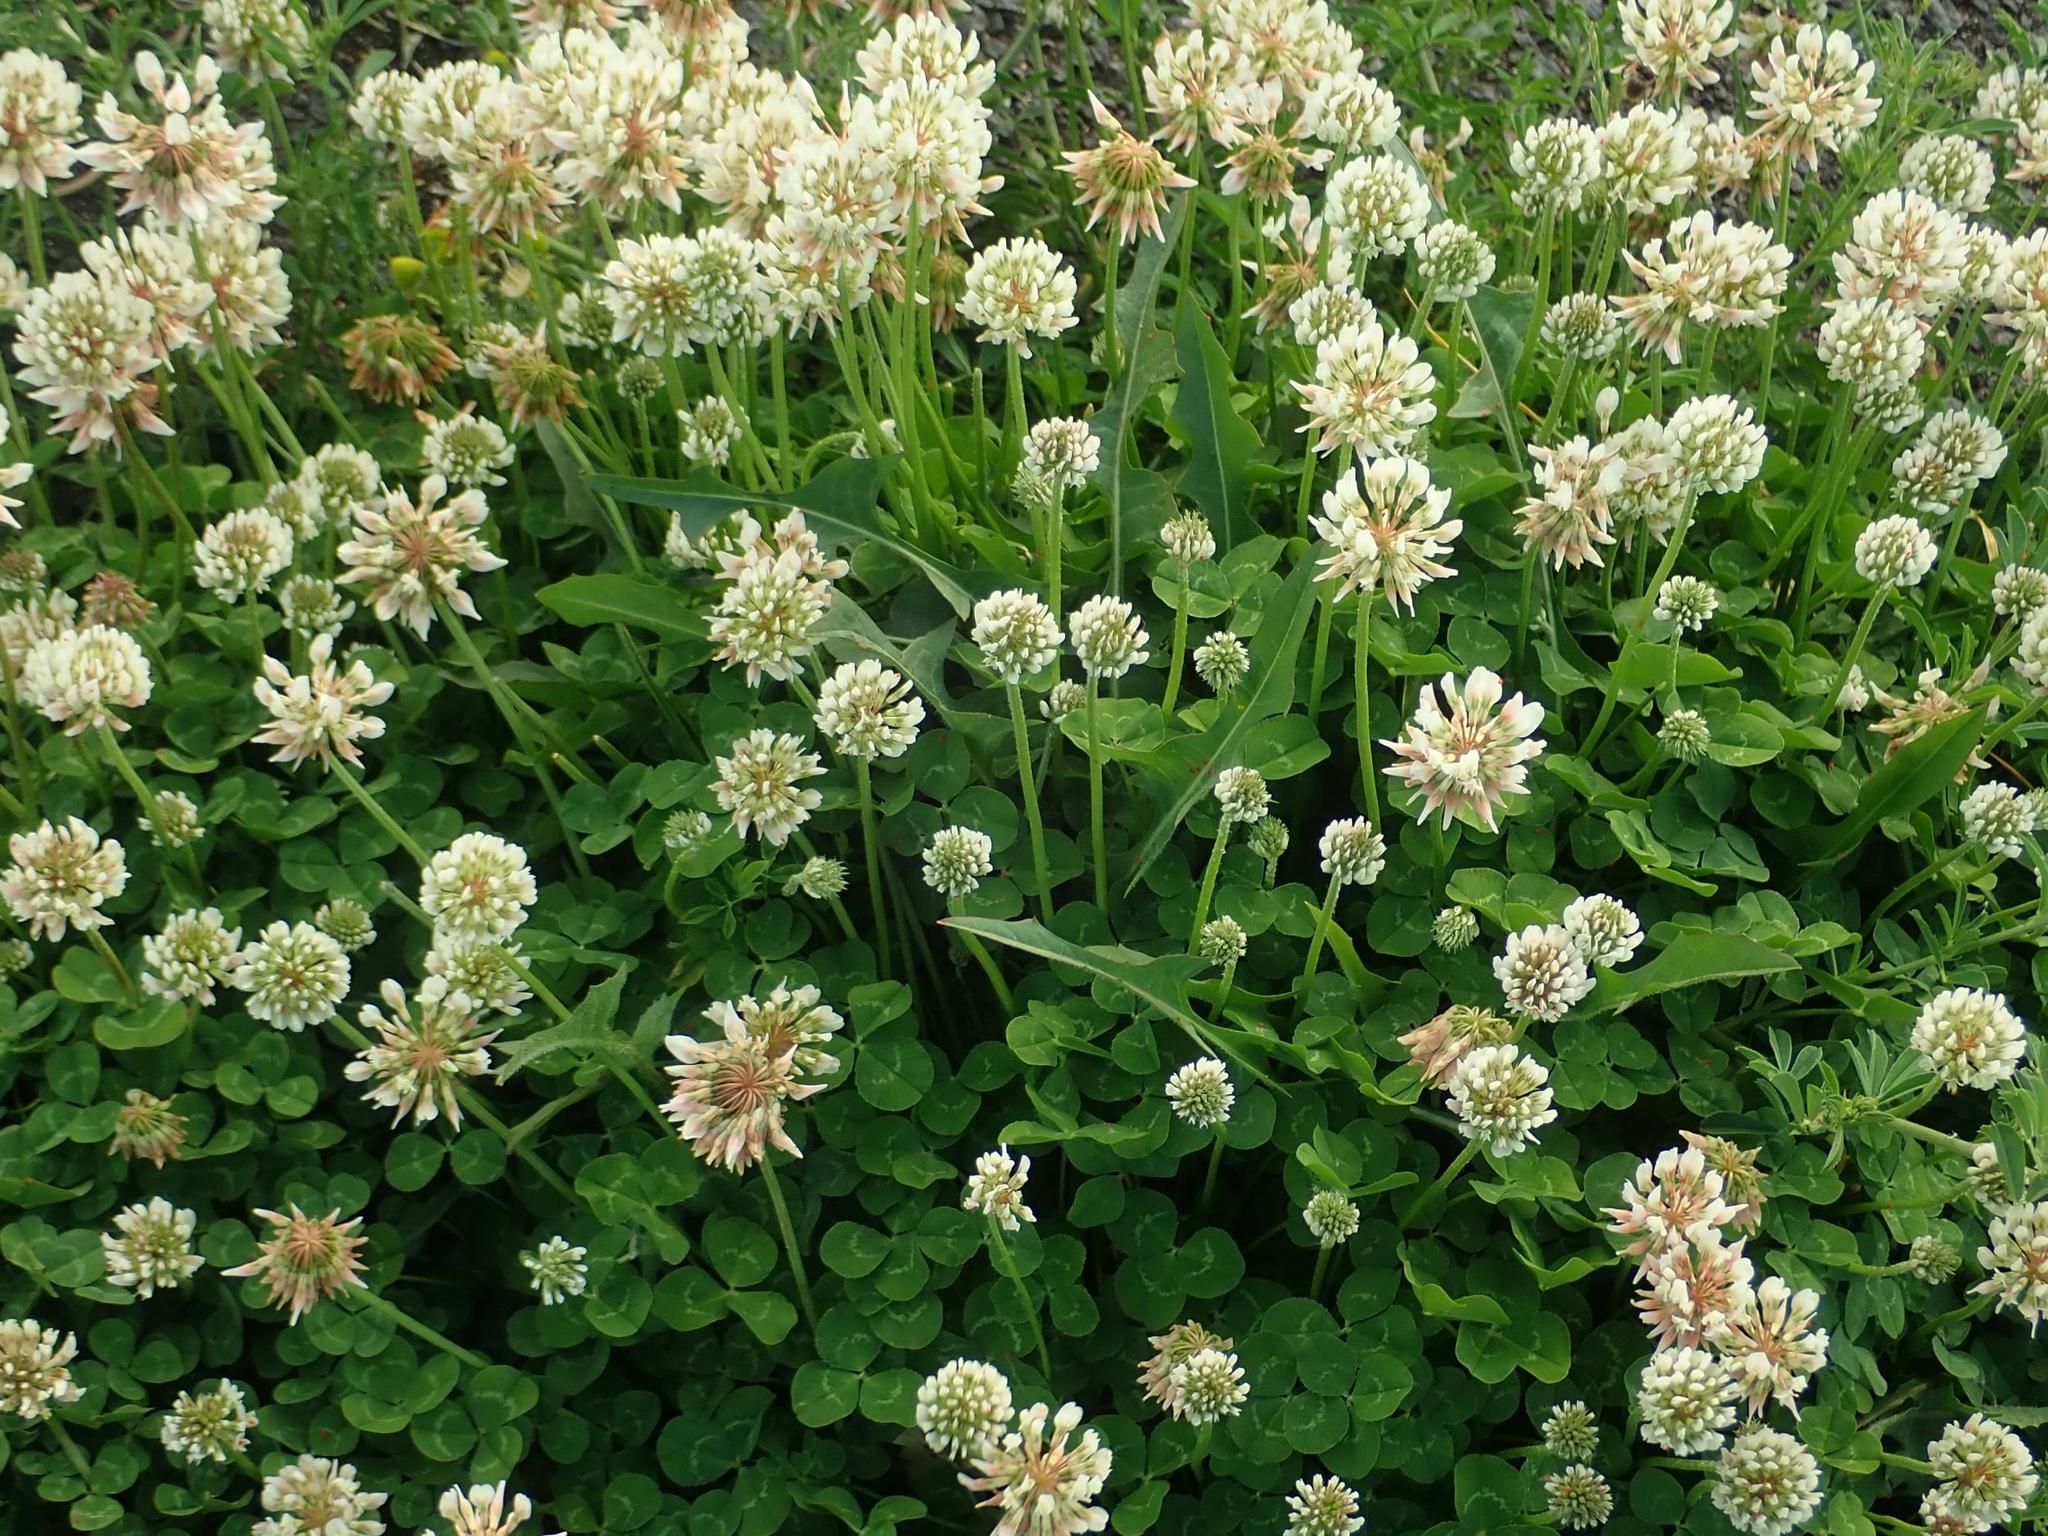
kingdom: Plantae
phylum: Tracheophyta
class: Magnoliopsida
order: Fabales
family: Fabaceae
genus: Trifolium
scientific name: Trifolium repens
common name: White clover
